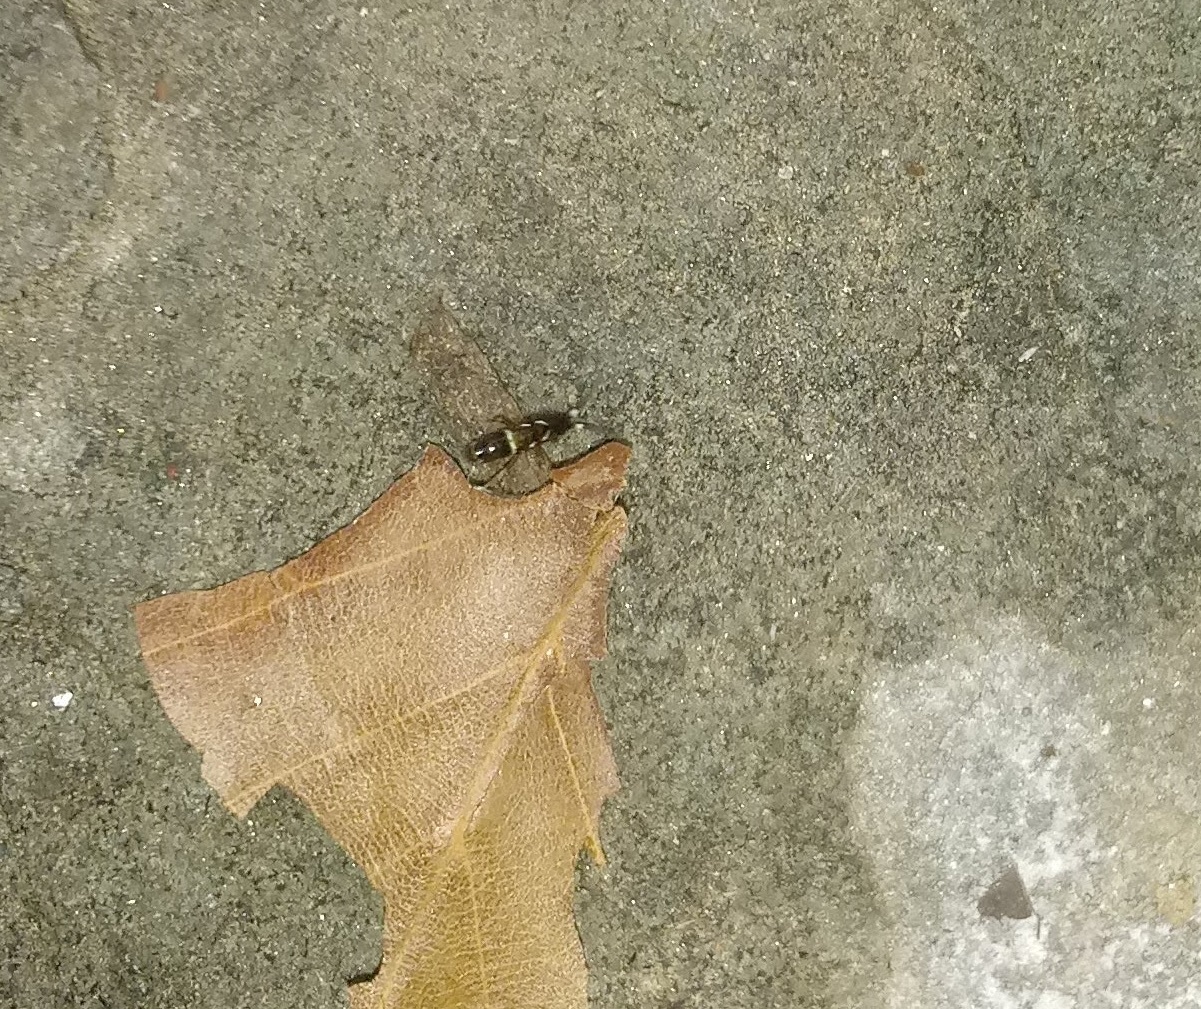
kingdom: Animalia
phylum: Arthropoda
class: Collembola
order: Entomobryomorpha
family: Orchesellidae
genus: Orchesella
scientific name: Orchesella cincta
